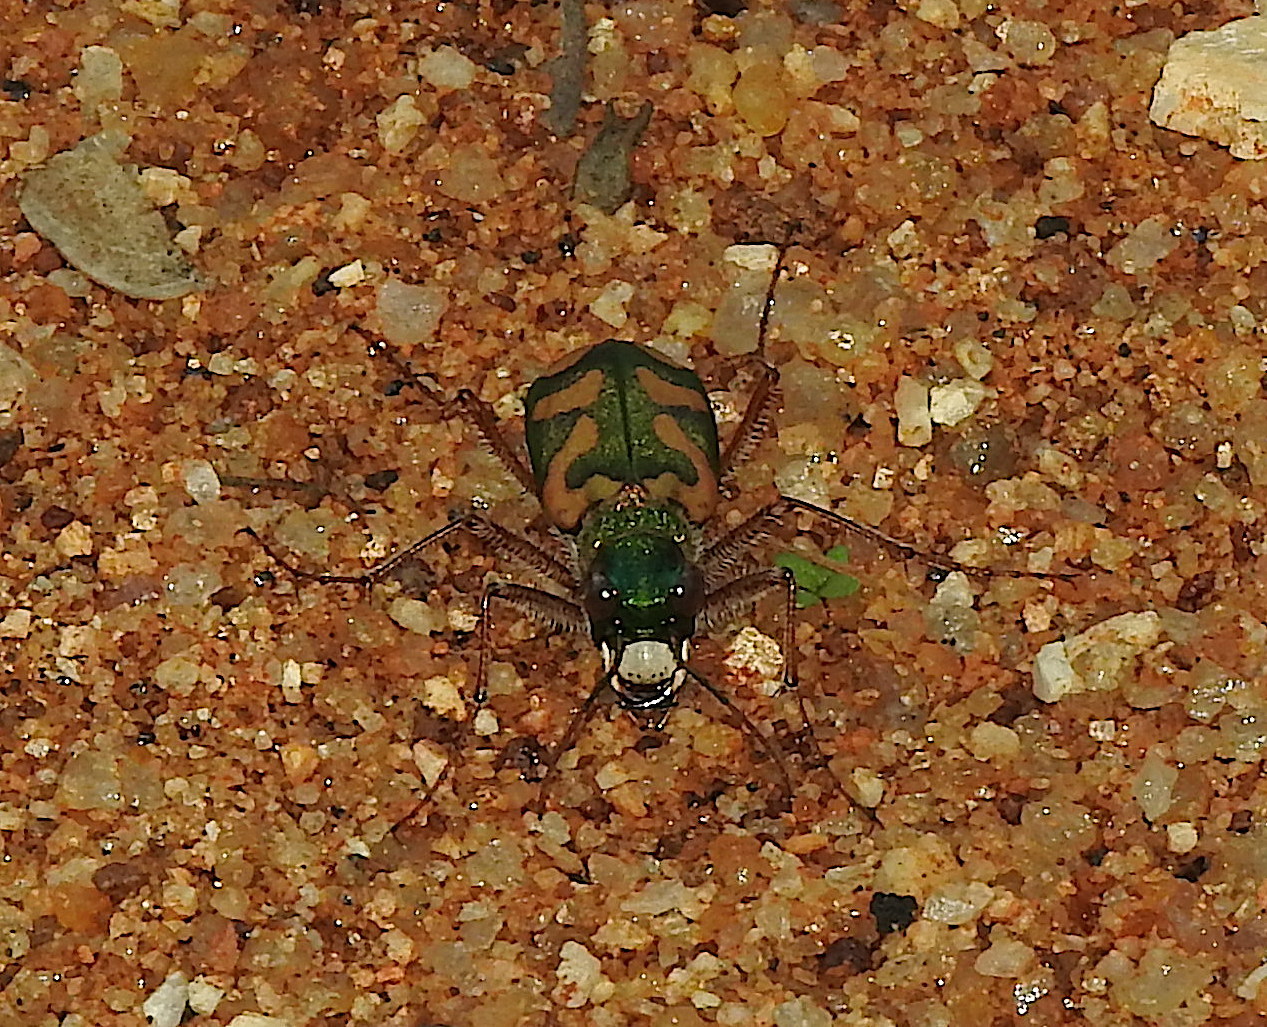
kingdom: Animalia
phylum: Arthropoda
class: Insecta
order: Coleoptera
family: Carabidae
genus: Cicindela
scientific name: Cicindela calligramma
